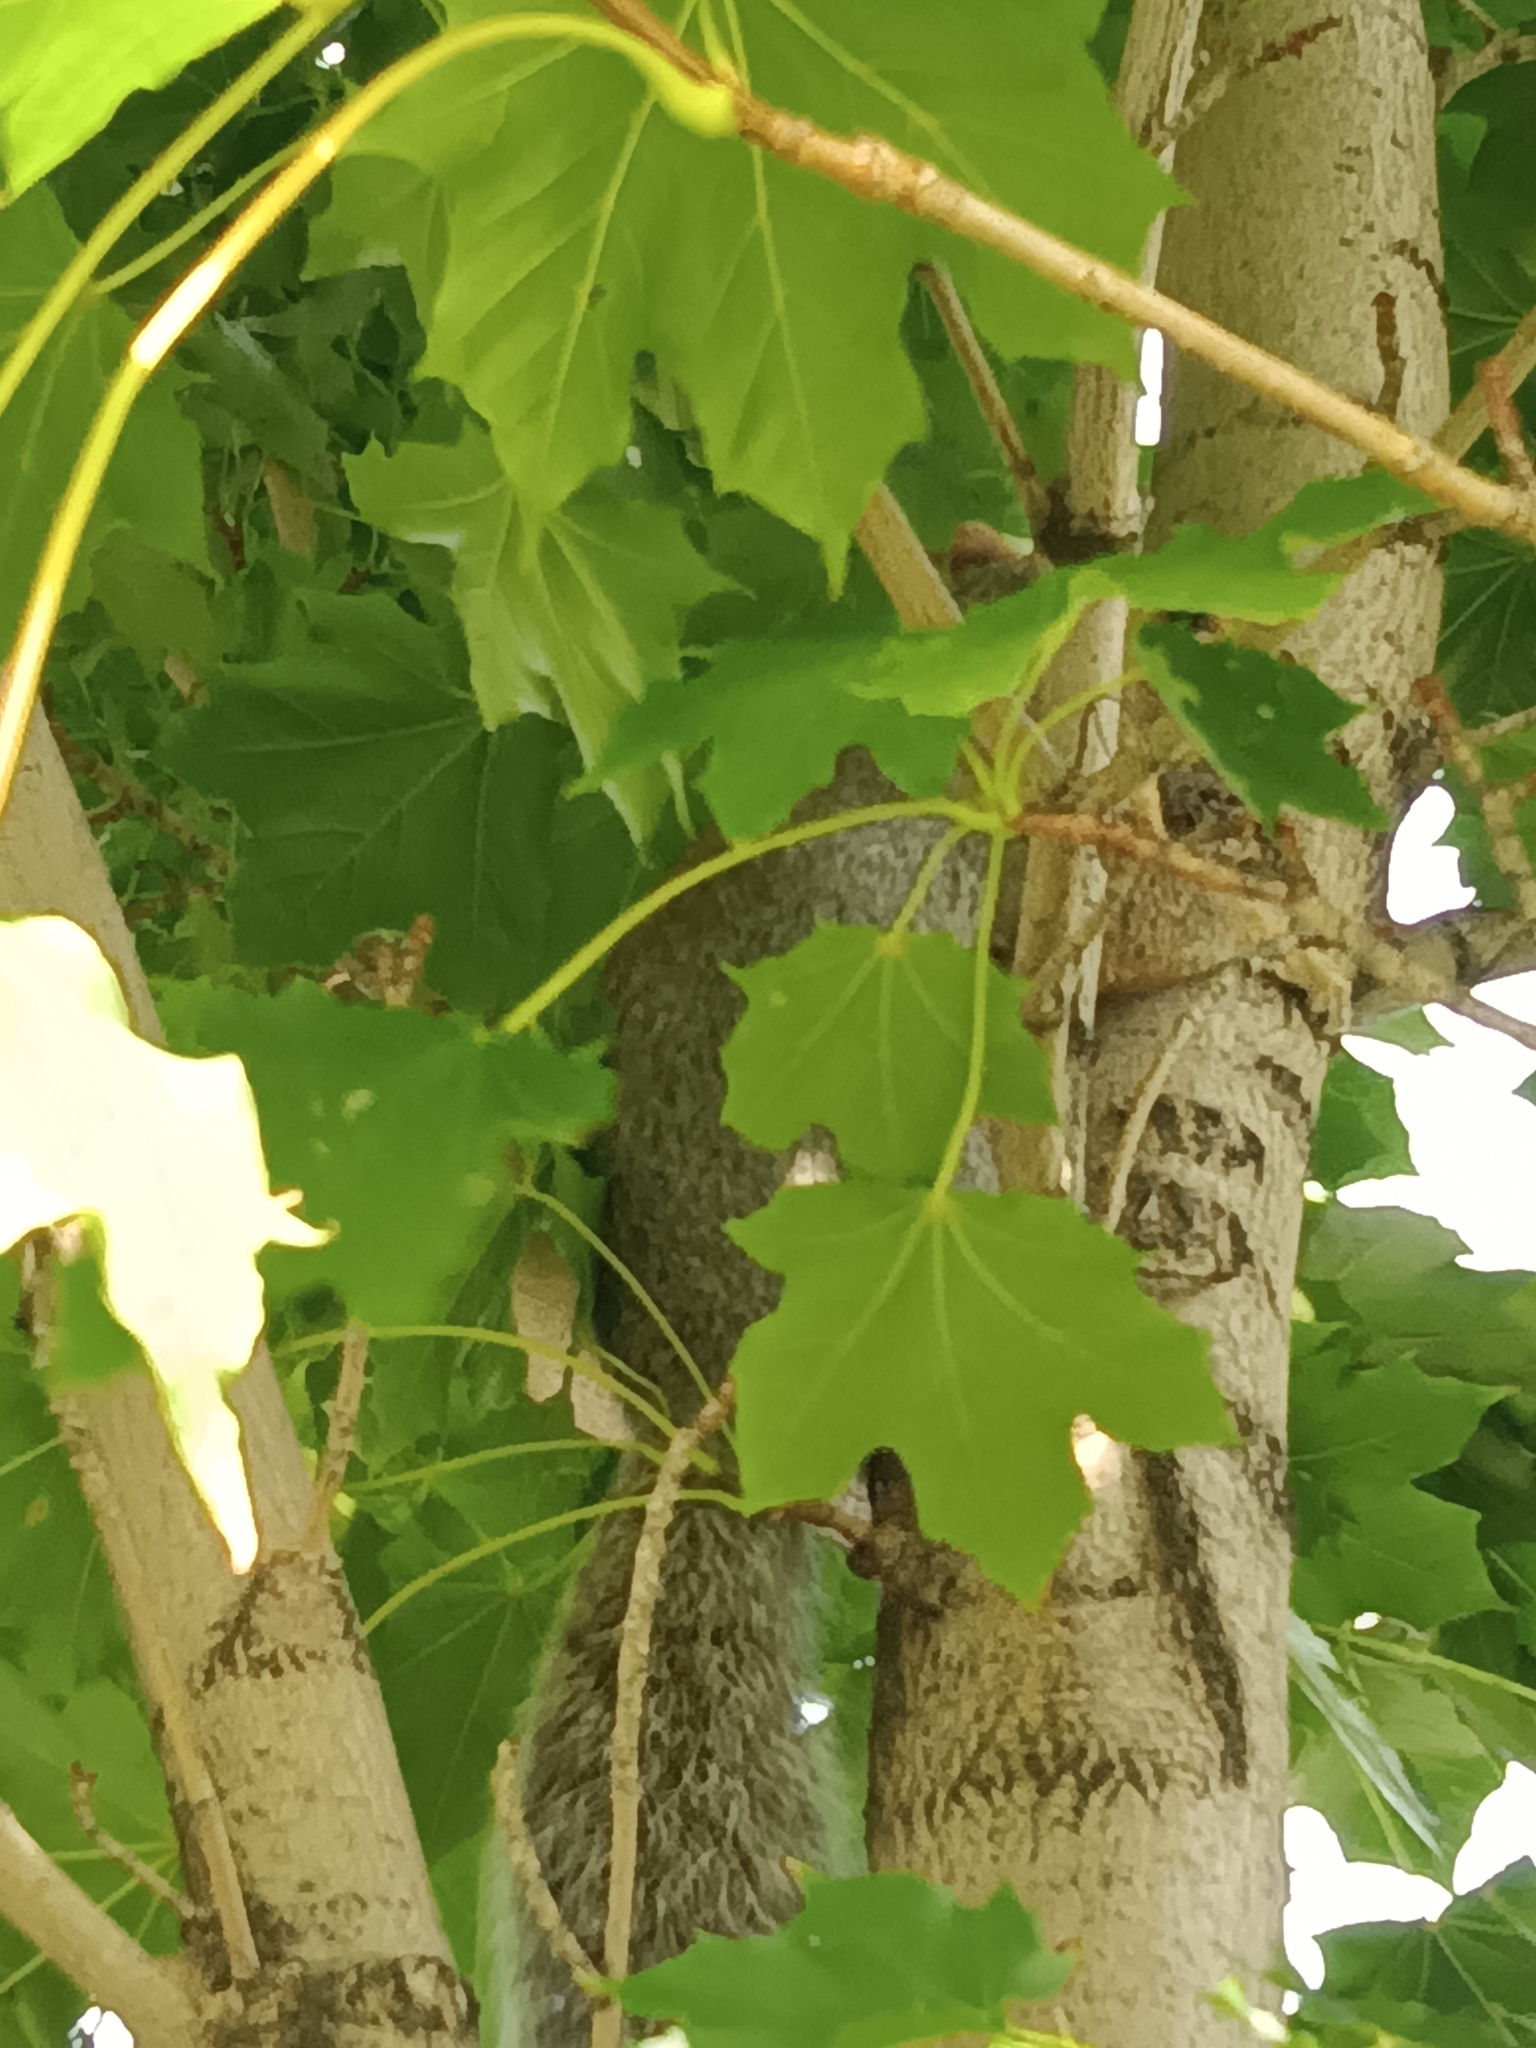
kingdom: Animalia
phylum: Chordata
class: Mammalia
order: Rodentia
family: Sciuridae
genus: Sciurus
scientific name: Sciurus carolinensis
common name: Eastern gray squirrel
